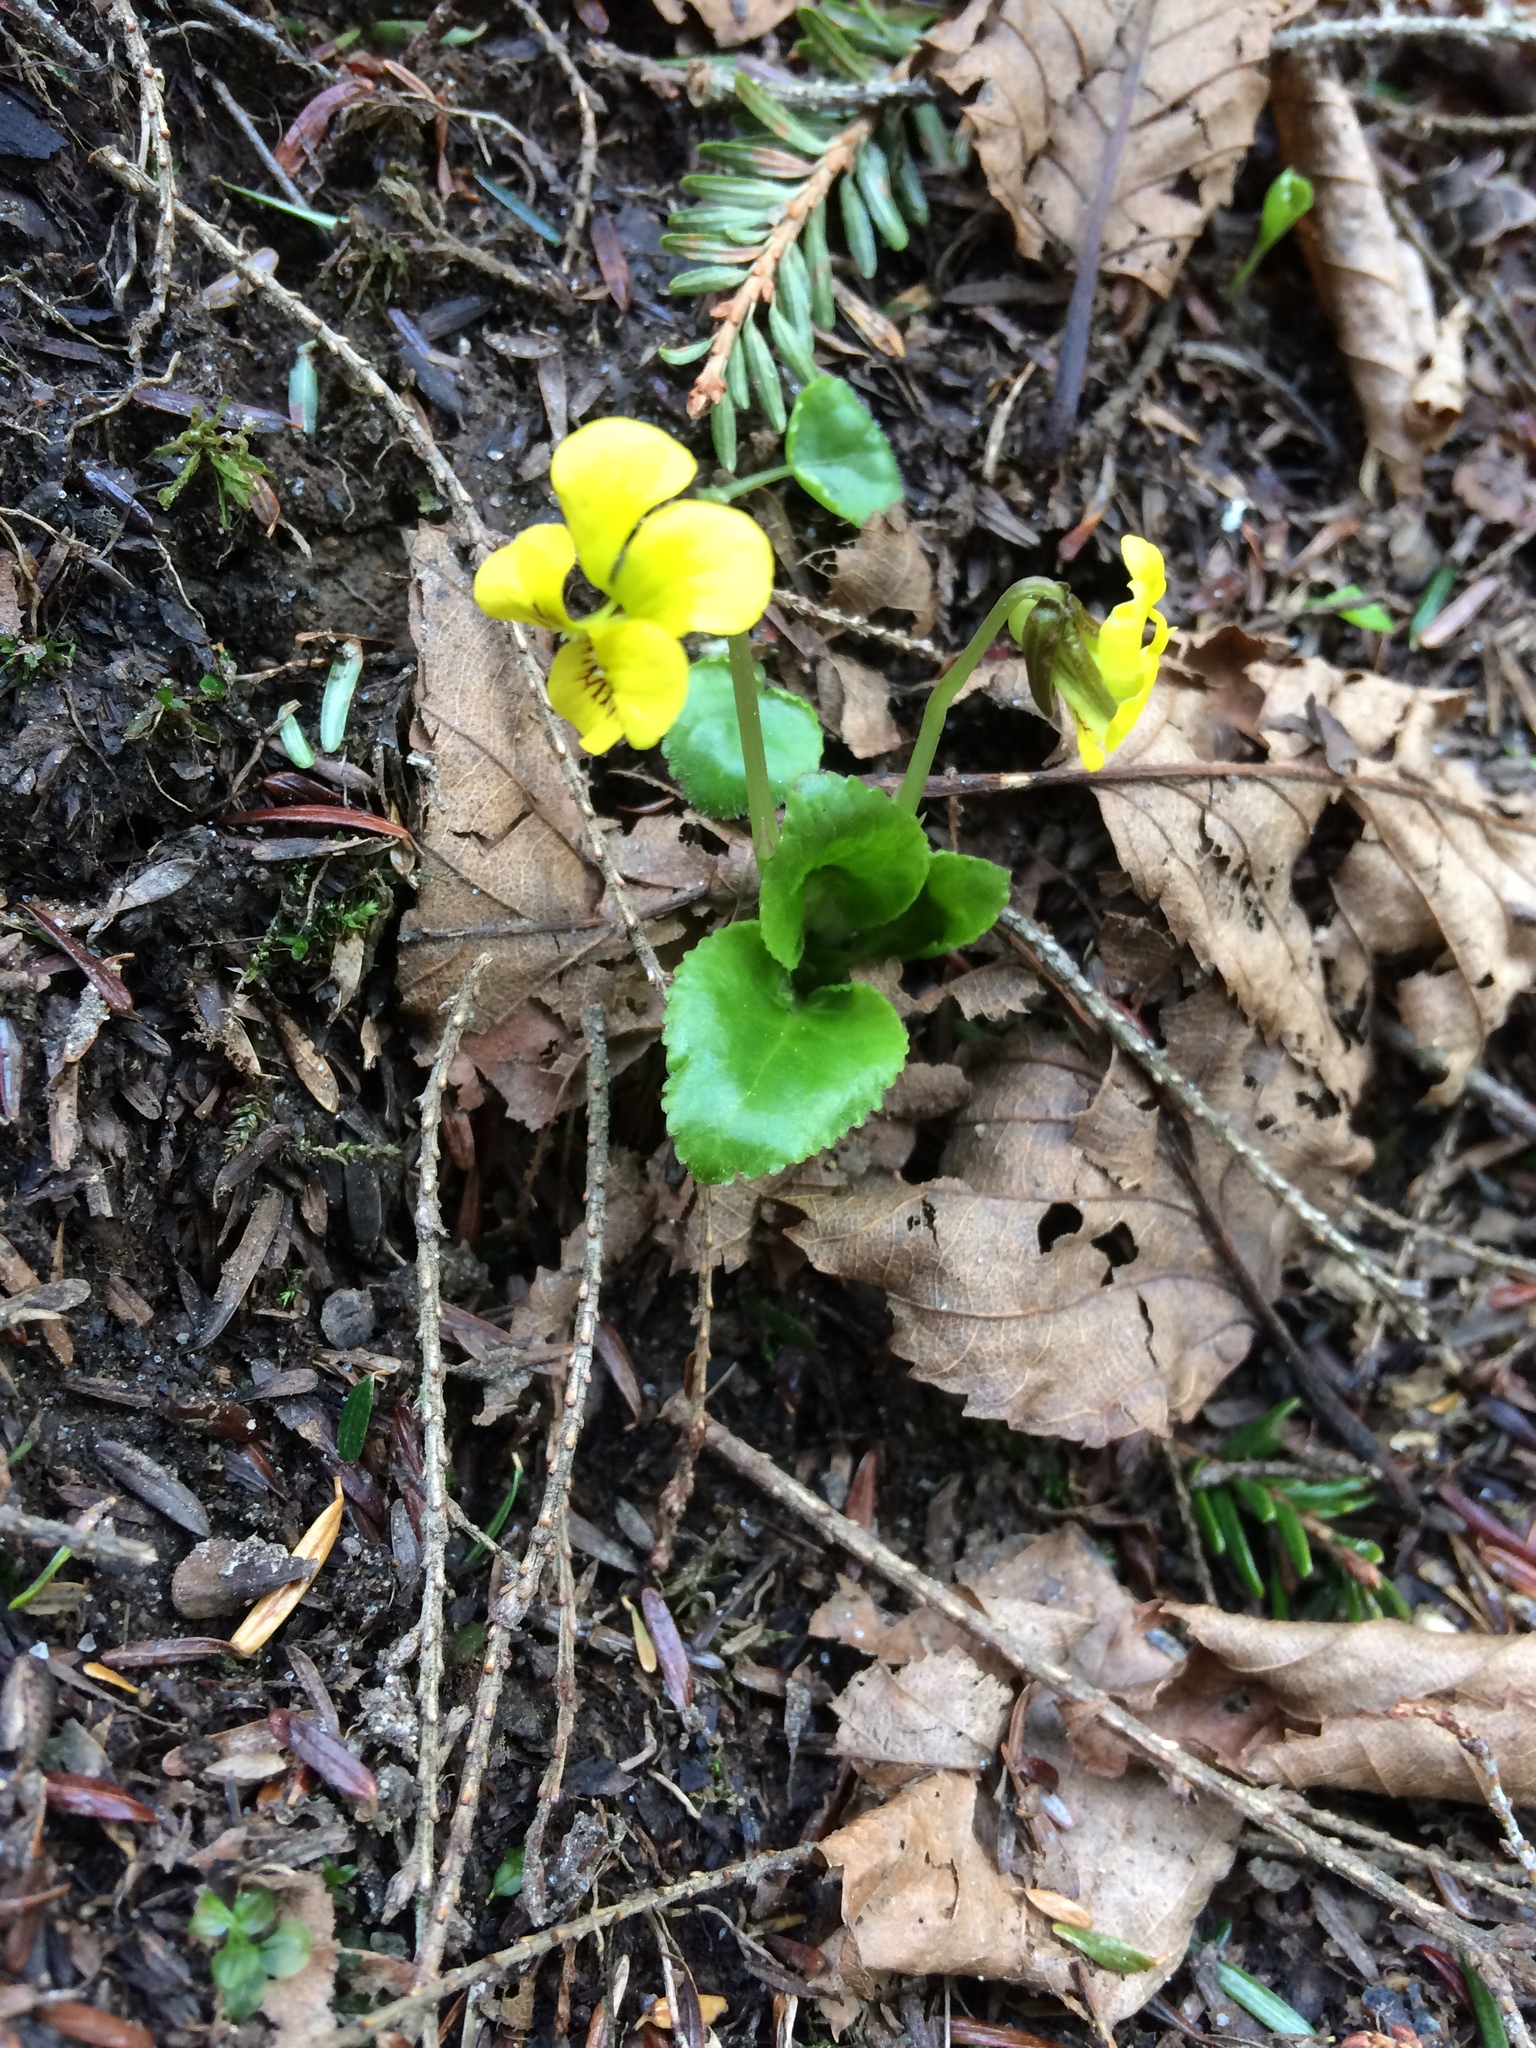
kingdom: Plantae
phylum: Tracheophyta
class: Magnoliopsida
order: Malpighiales
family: Violaceae
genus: Viola
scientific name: Viola rotundifolia
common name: Early yellow violet
